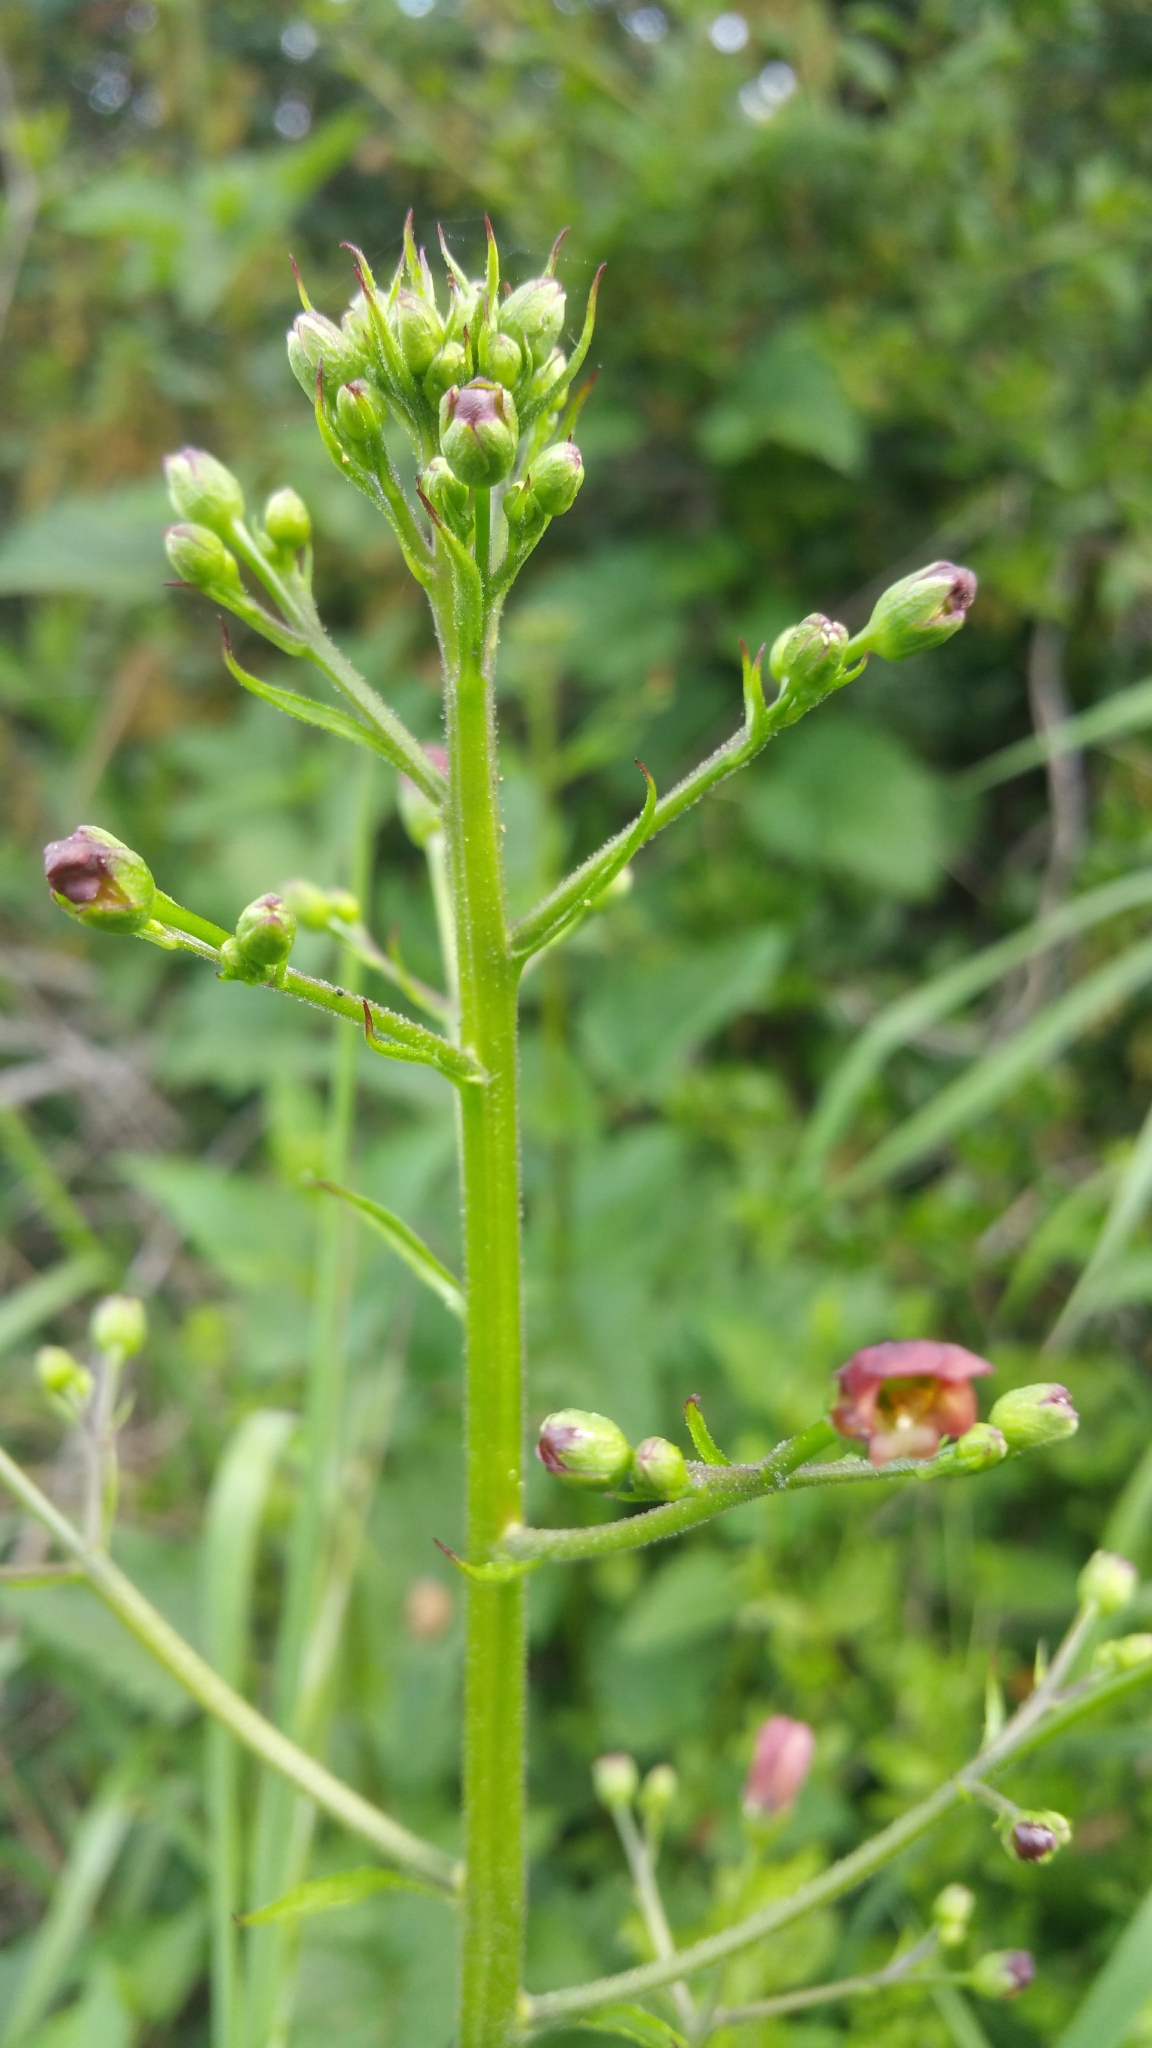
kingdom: Plantae
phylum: Tracheophyta
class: Magnoliopsida
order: Lamiales
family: Scrophulariaceae
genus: Scrophularia
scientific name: Scrophularia californica
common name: California figwort
